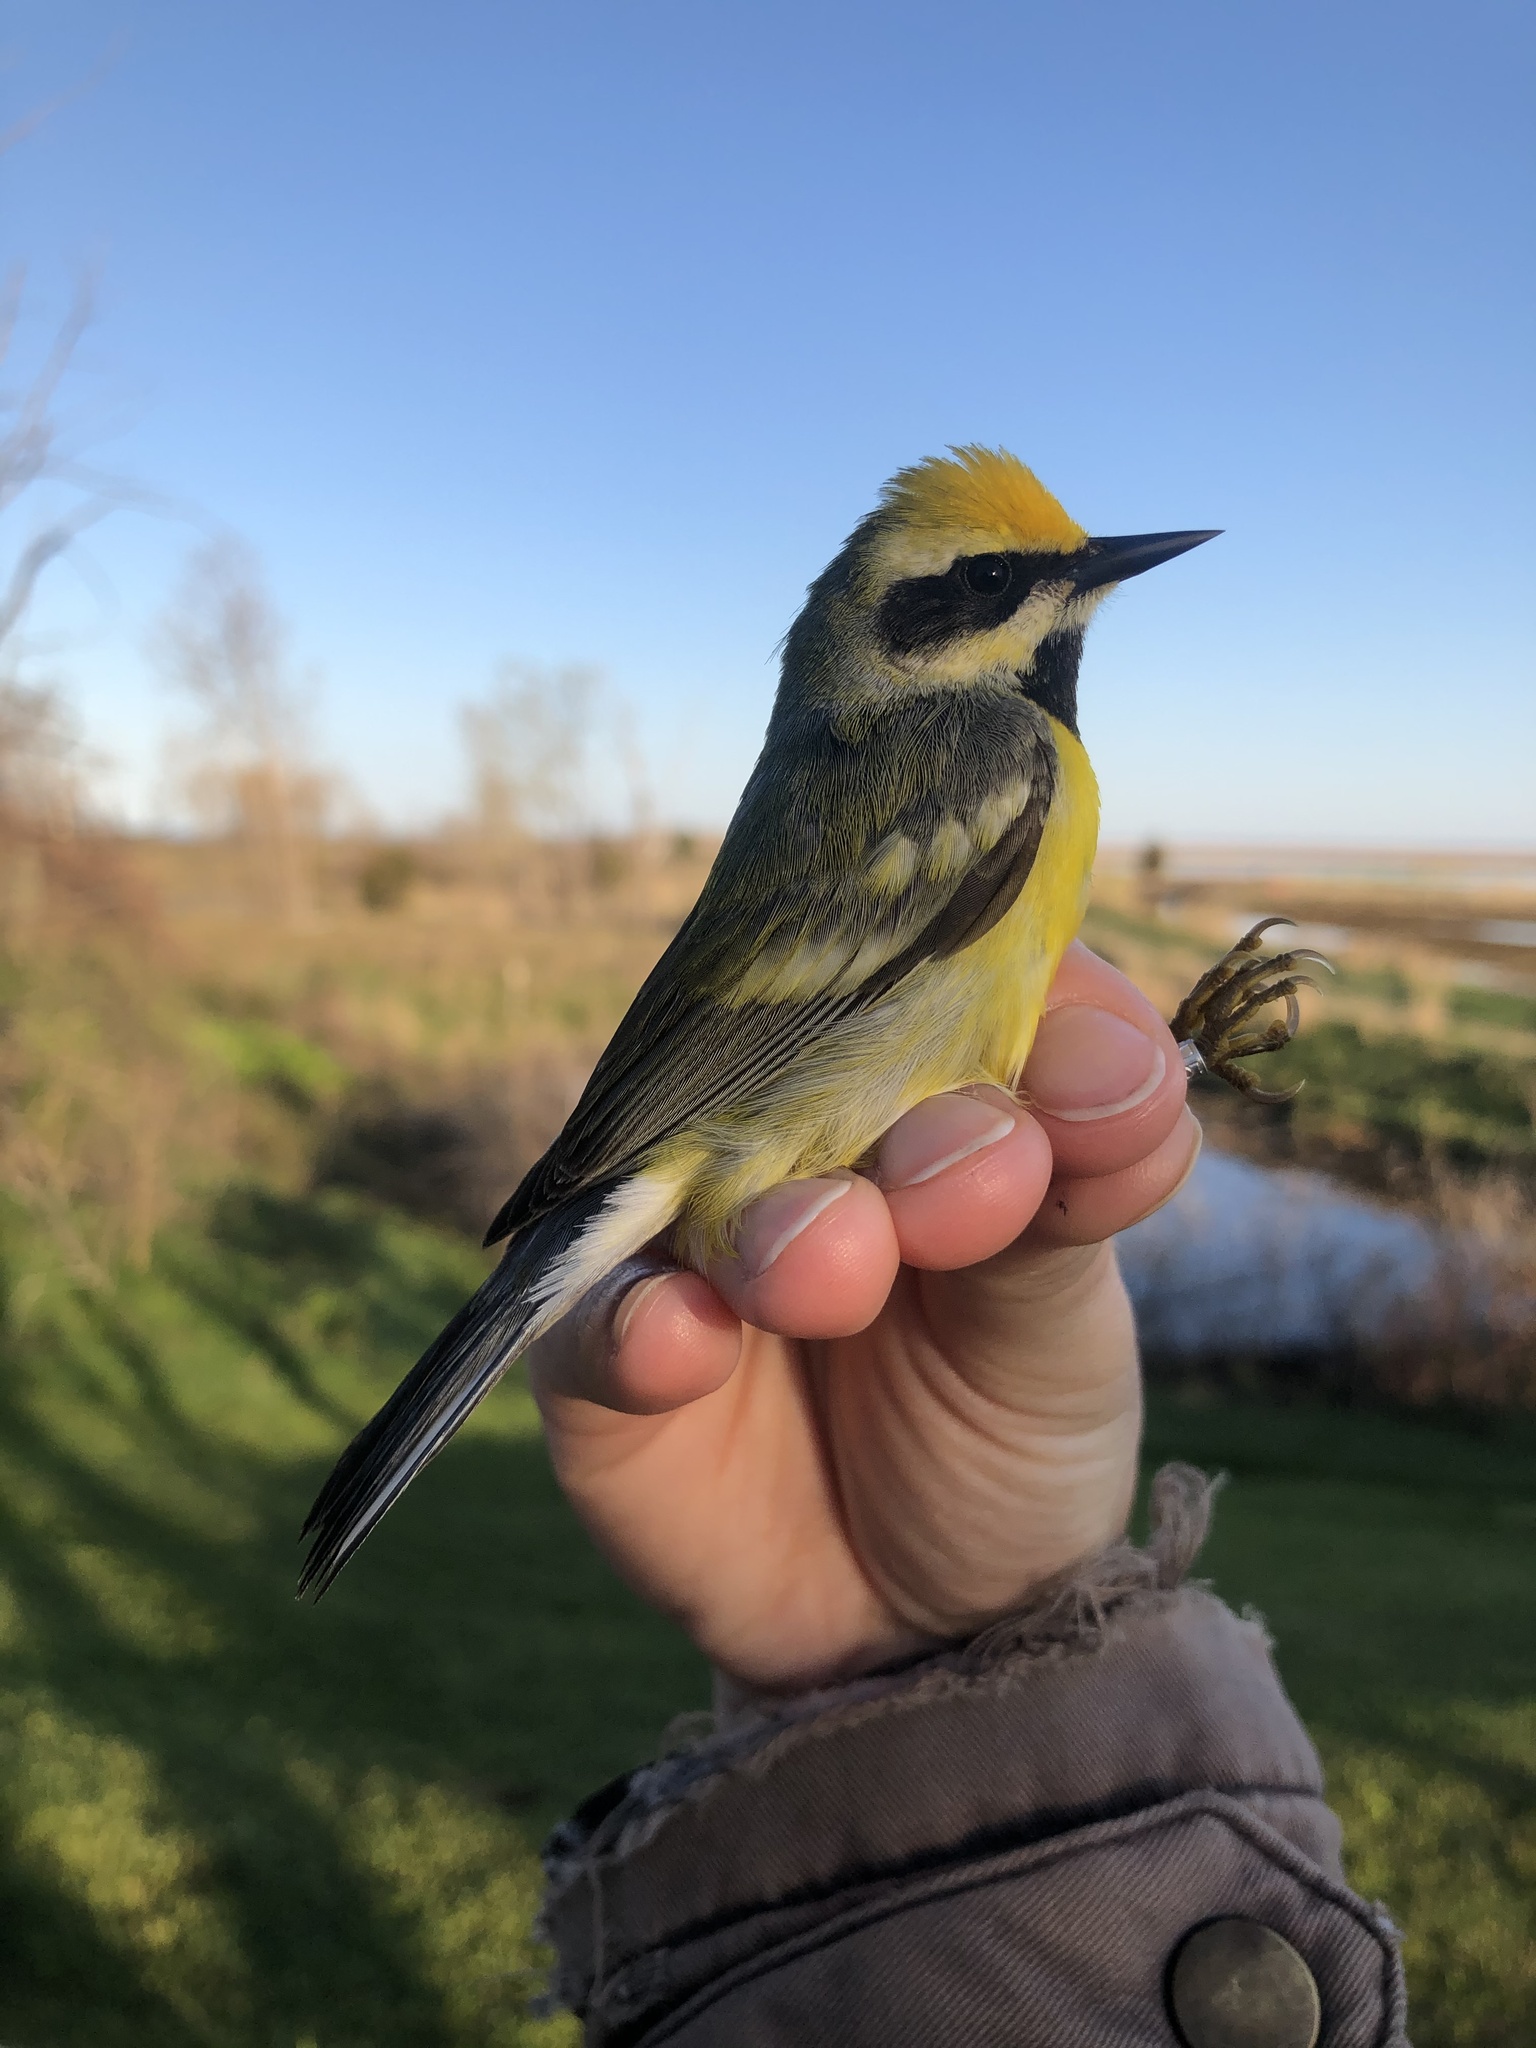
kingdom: Animalia
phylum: Chordata
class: Aves
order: Passeriformes
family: Parulidae
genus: Vermivora
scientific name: Vermivora
